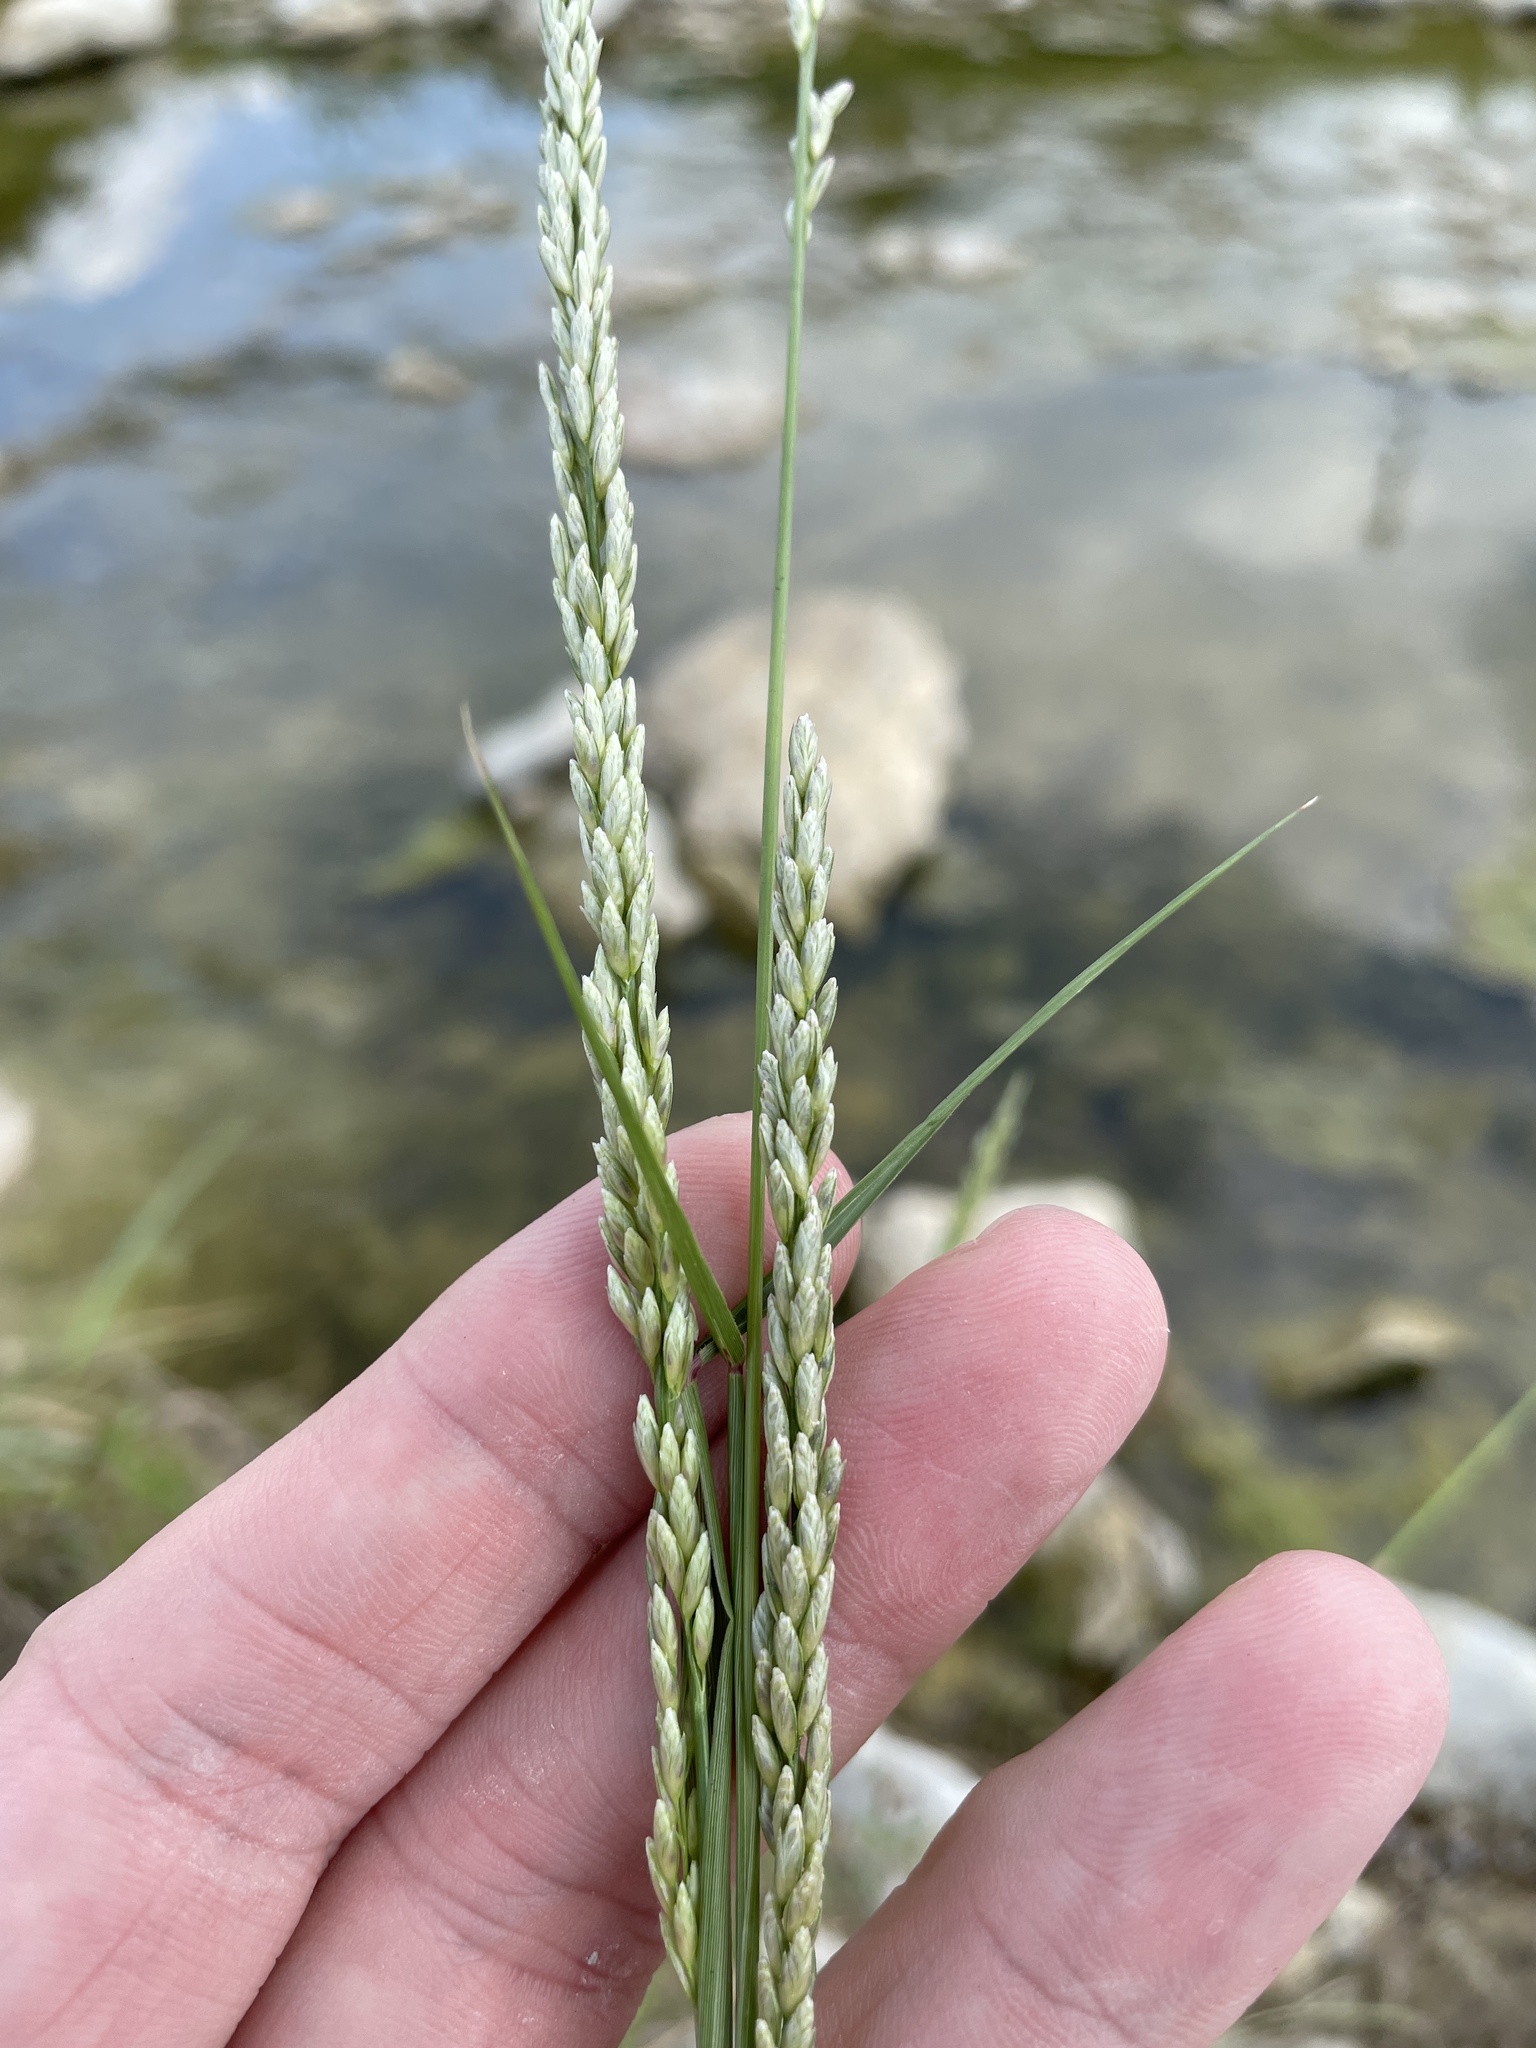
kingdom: Plantae
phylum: Tracheophyta
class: Liliopsida
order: Poales
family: Poaceae
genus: Tridens
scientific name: Tridens albescens
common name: White tridens
